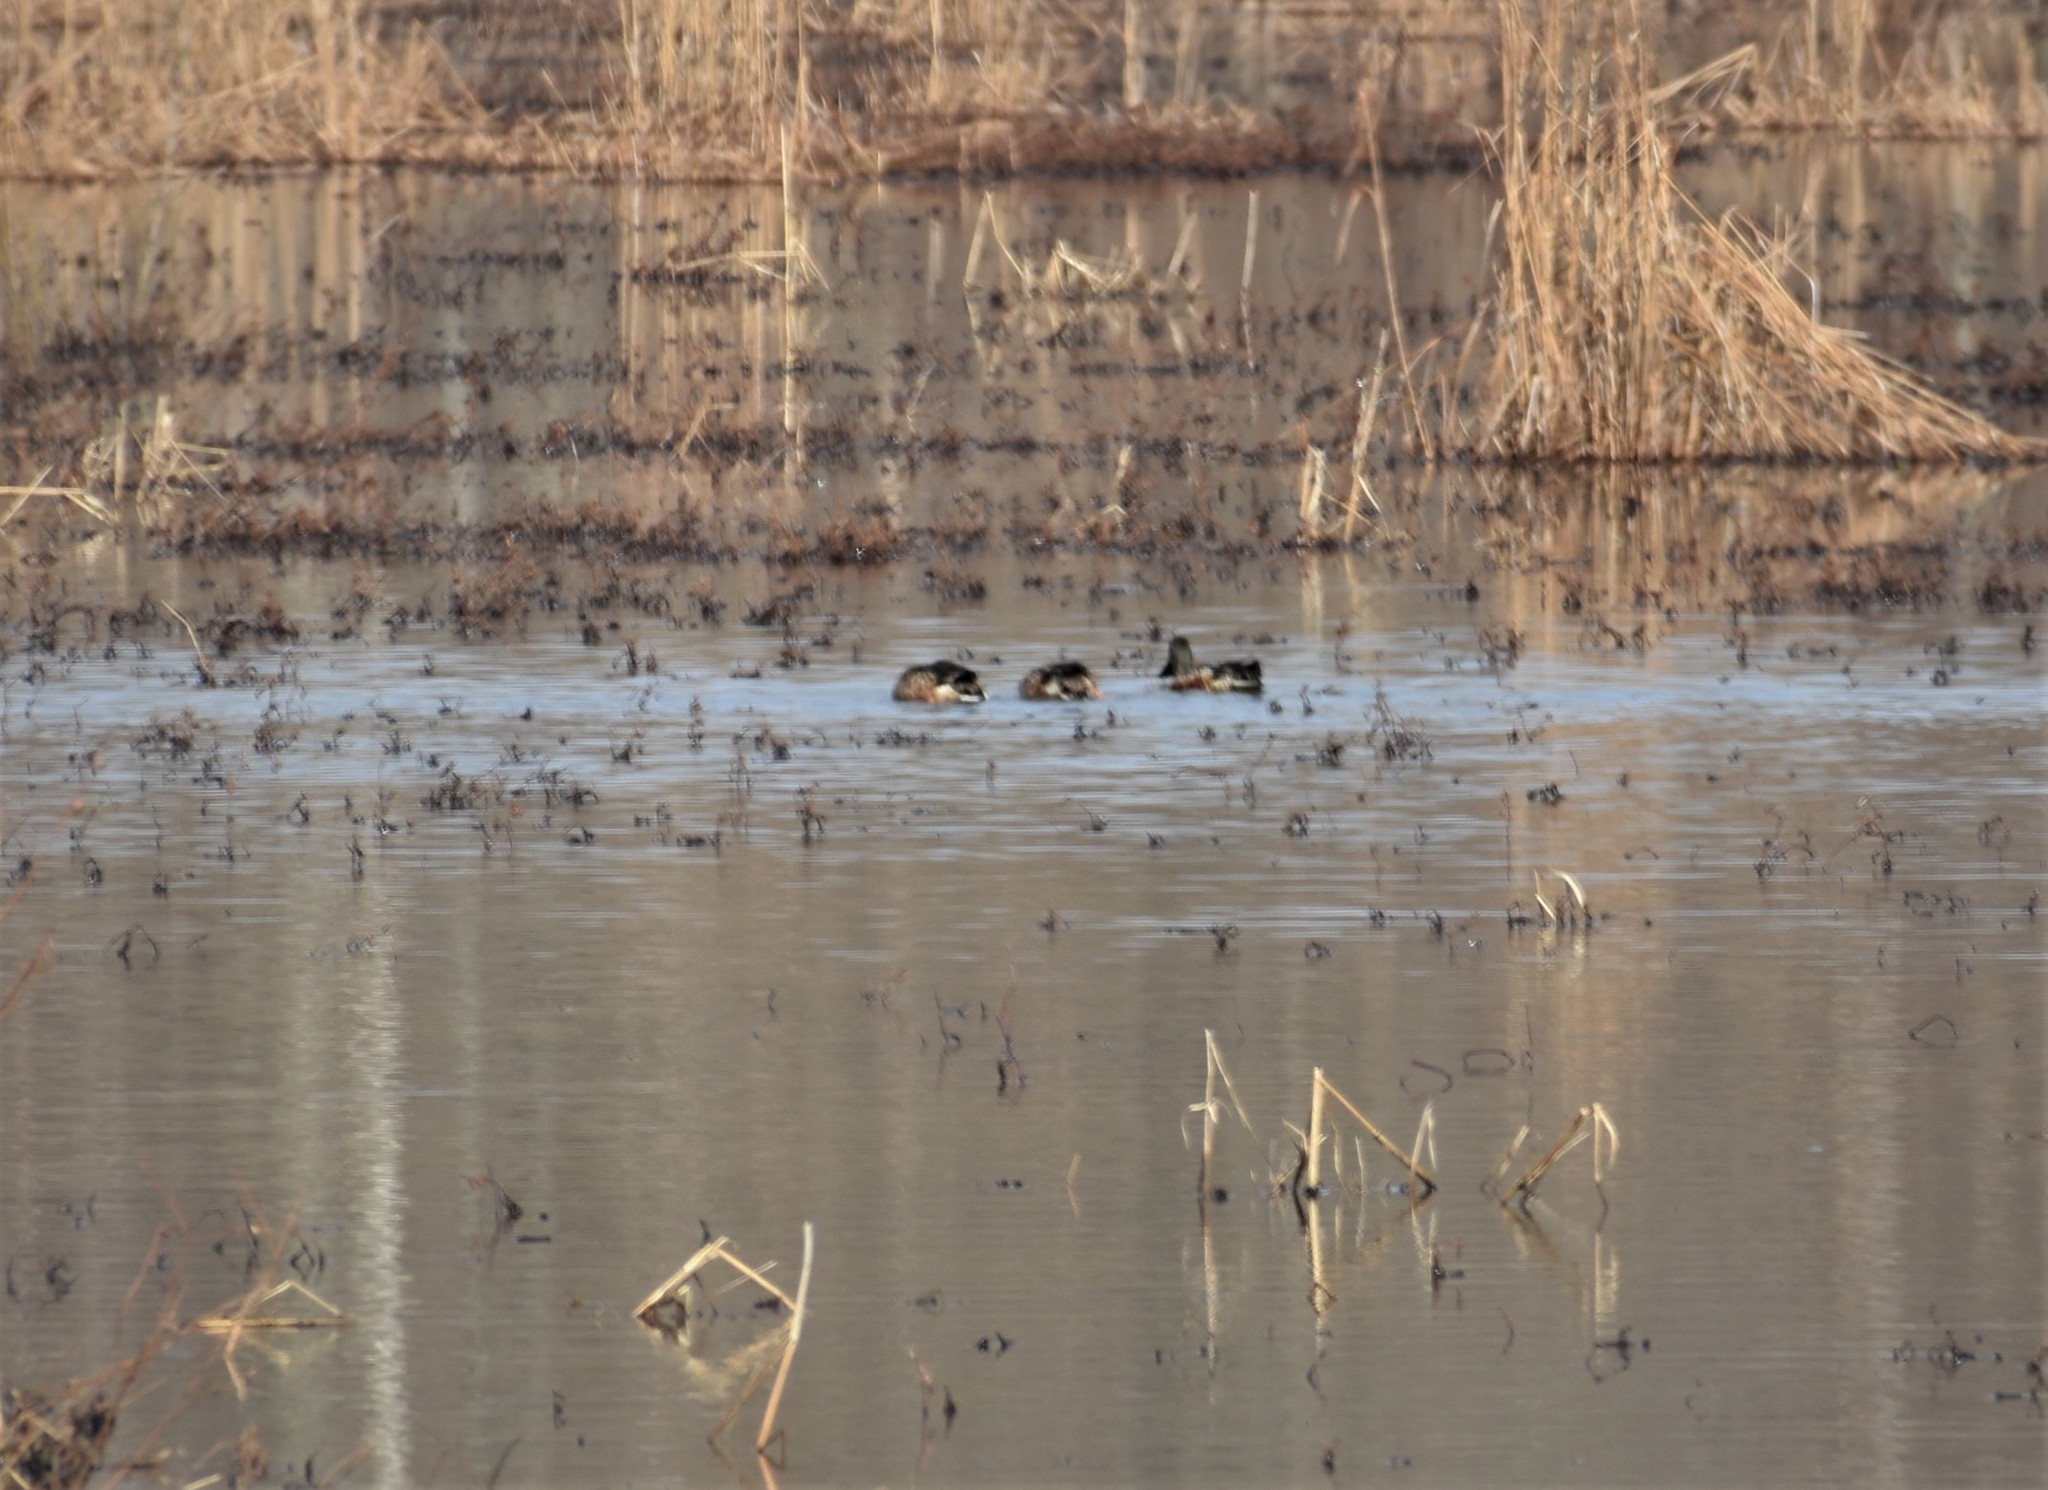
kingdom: Animalia
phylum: Chordata
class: Aves
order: Anseriformes
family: Anatidae
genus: Spatula
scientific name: Spatula clypeata
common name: Northern shoveler
